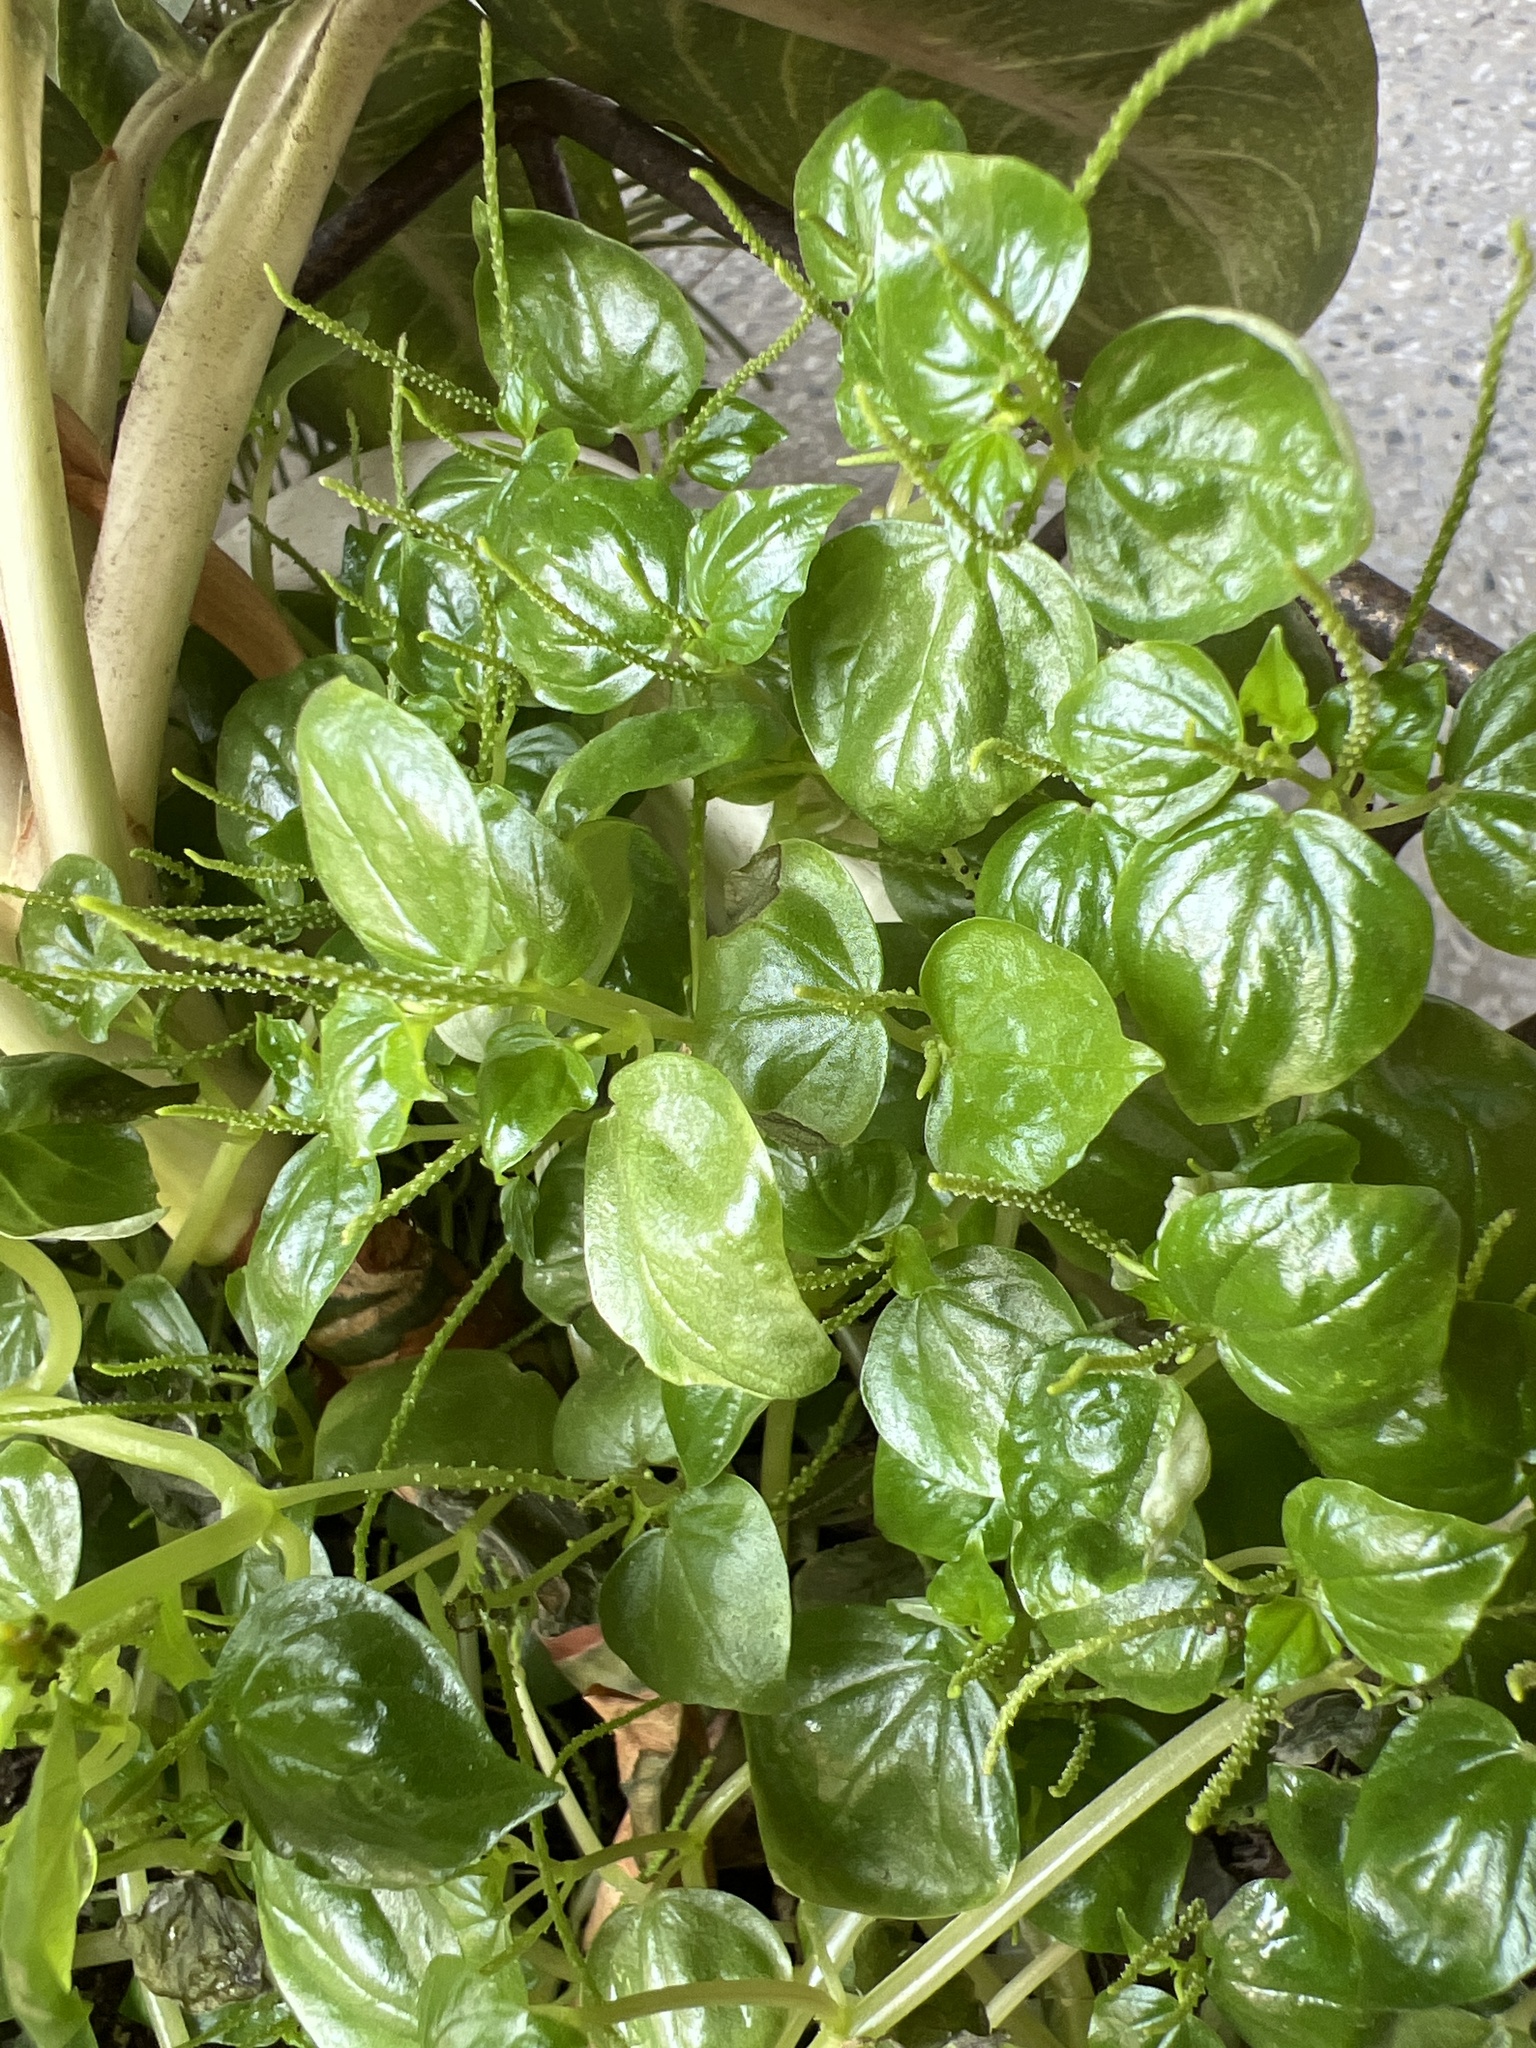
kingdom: Plantae
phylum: Tracheophyta
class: Magnoliopsida
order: Piperales
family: Piperaceae
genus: Peperomia
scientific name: Peperomia pellucida
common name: Man to man
